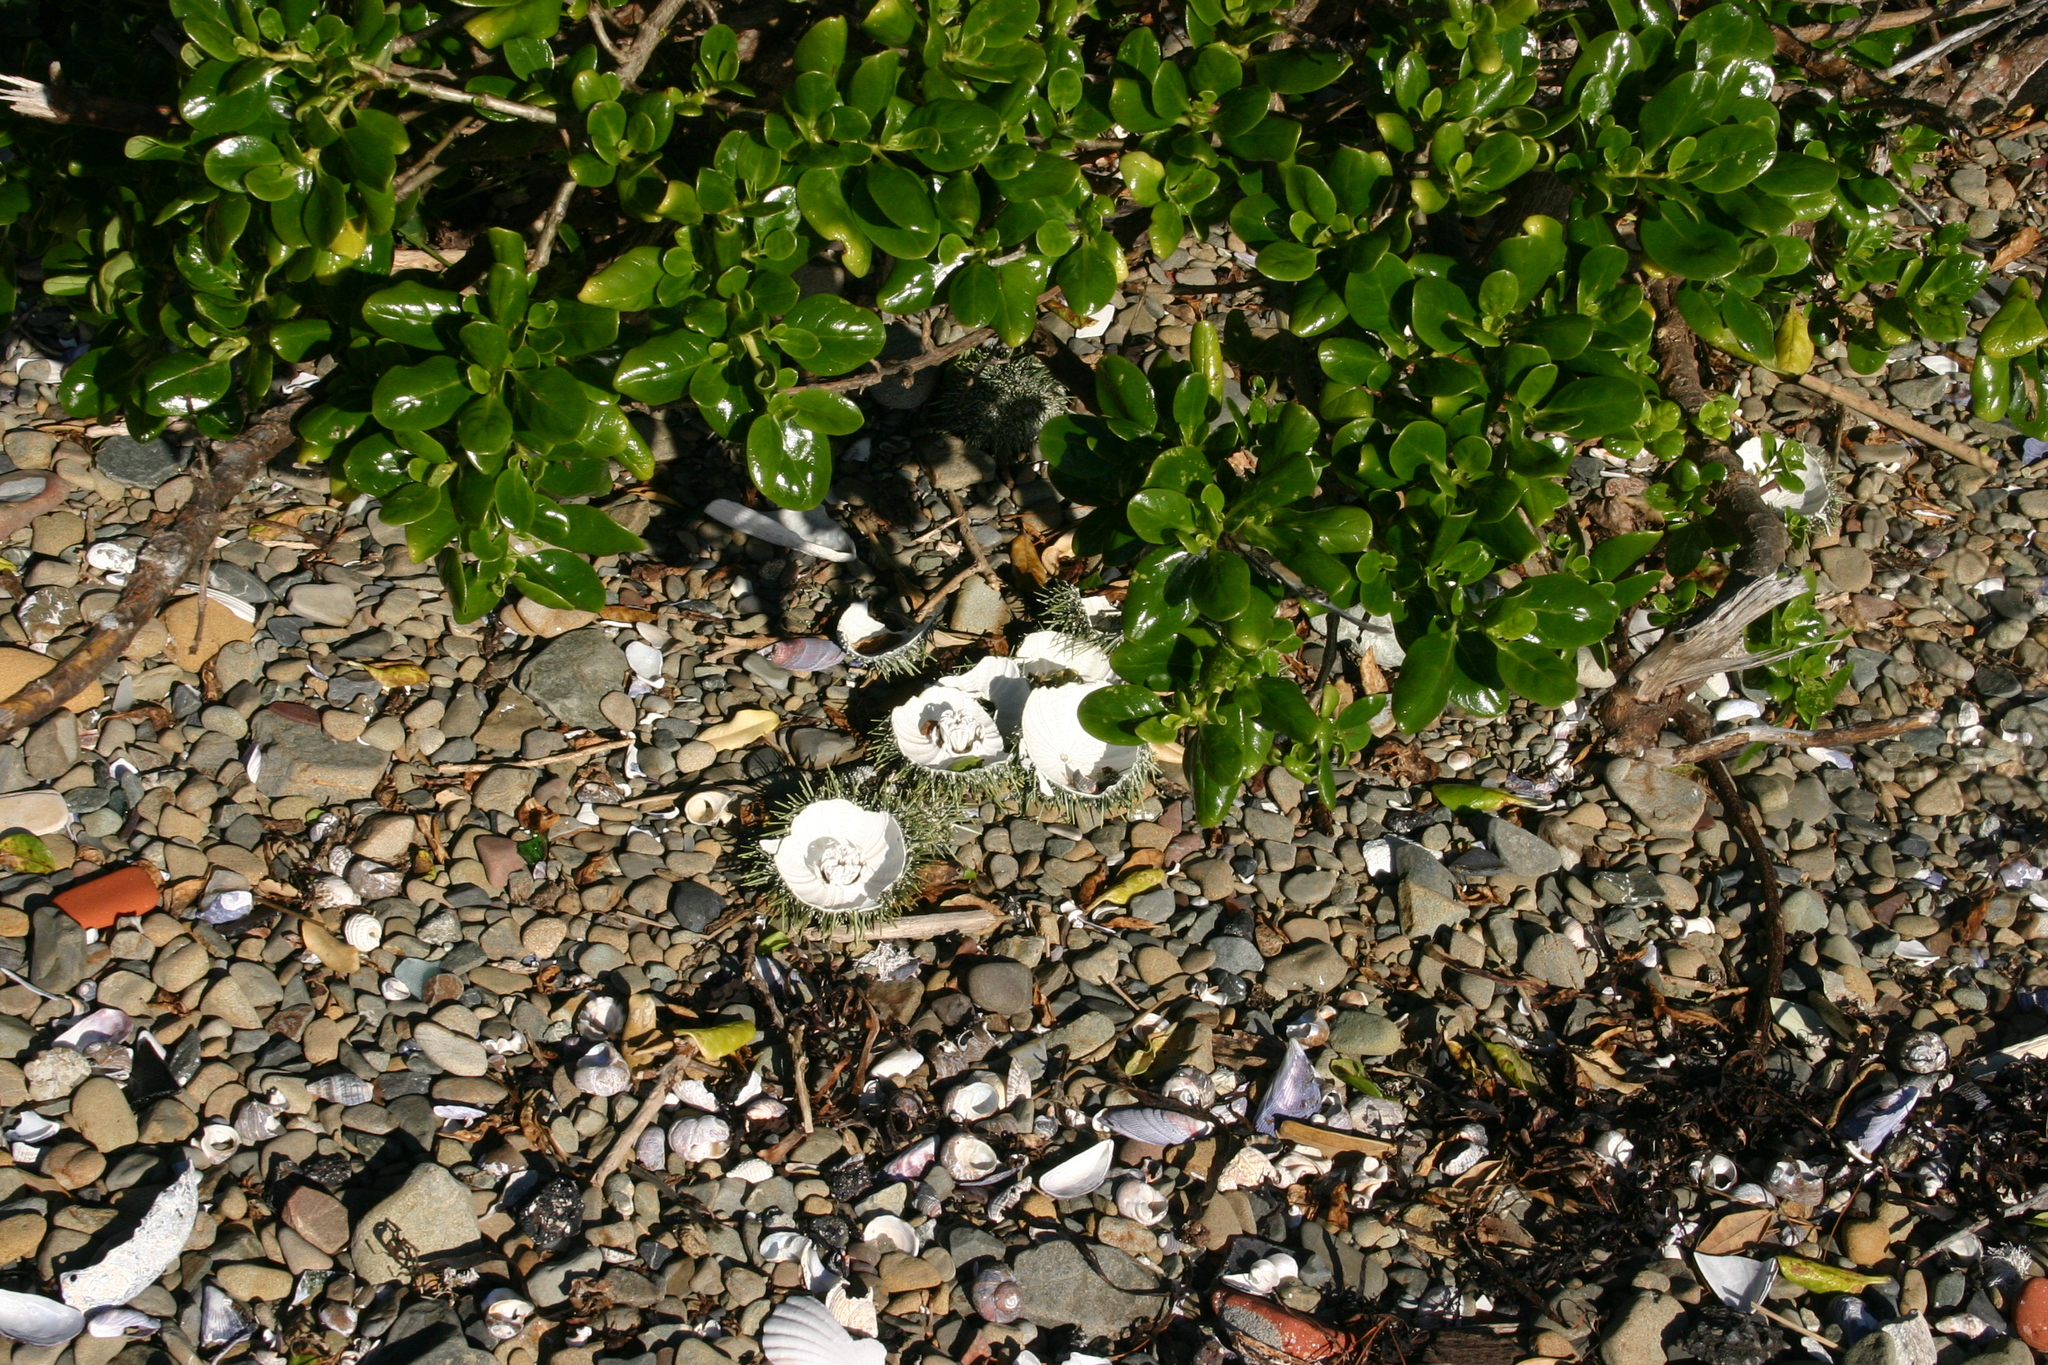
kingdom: Animalia
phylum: Echinodermata
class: Echinoidea
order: Camarodonta
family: Echinometridae
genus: Evechinus
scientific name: Evechinus chloroticus
